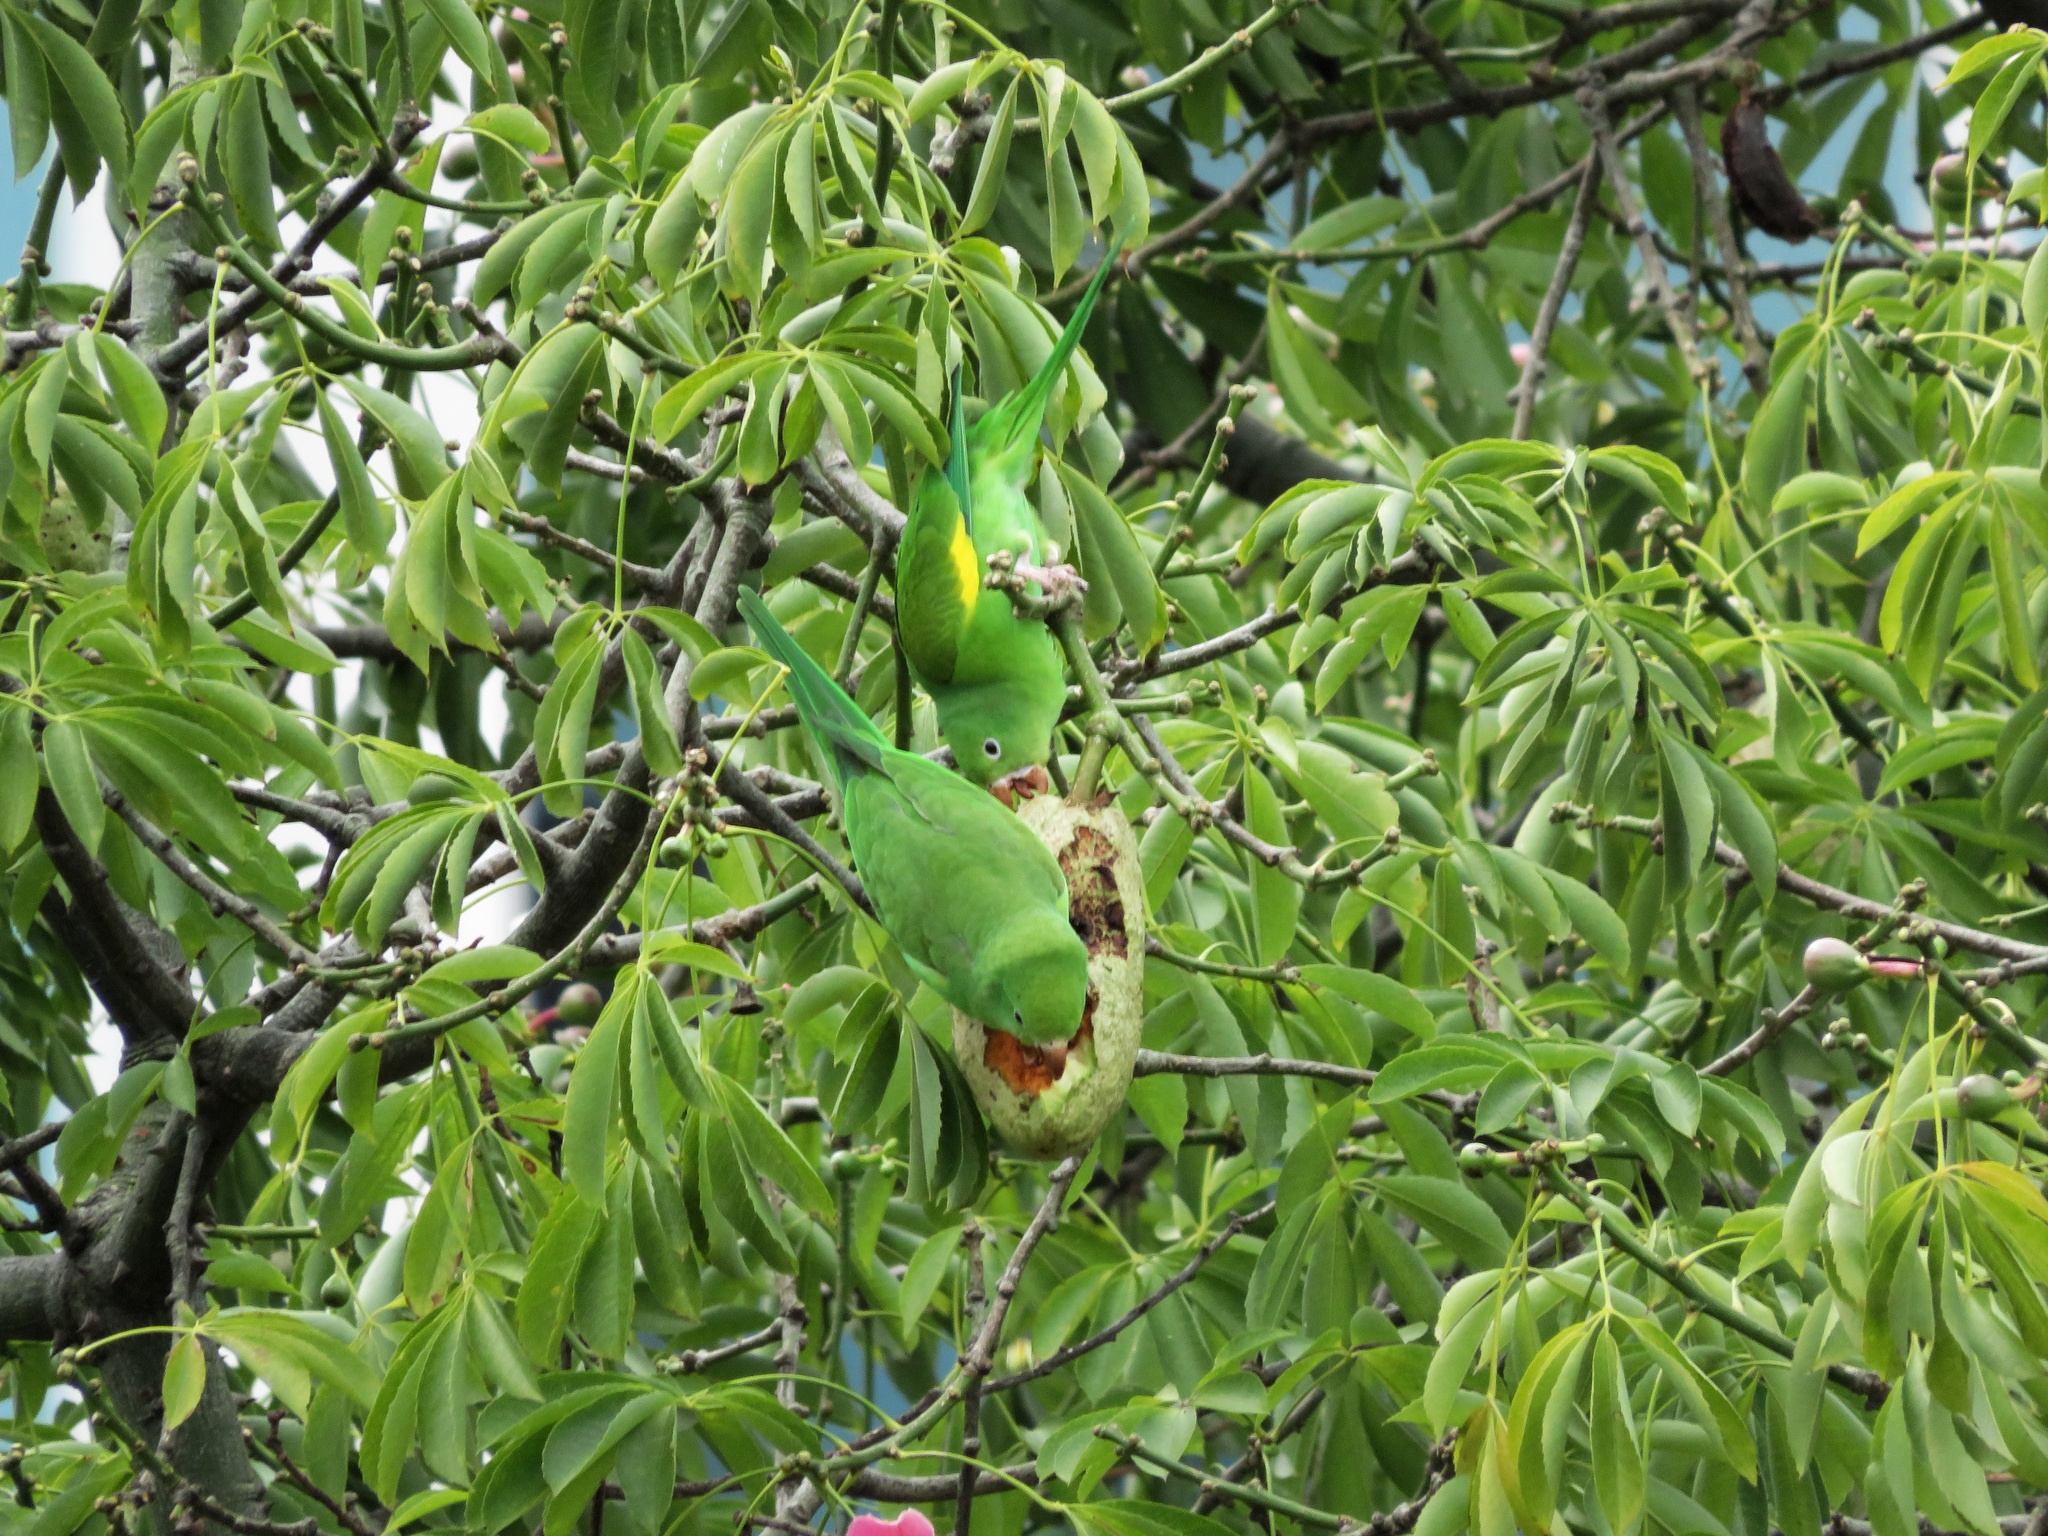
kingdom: Animalia
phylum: Chordata
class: Aves
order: Psittaciformes
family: Psittacidae
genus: Brotogeris
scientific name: Brotogeris chiriri
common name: Yellow-chevroned parakeet
